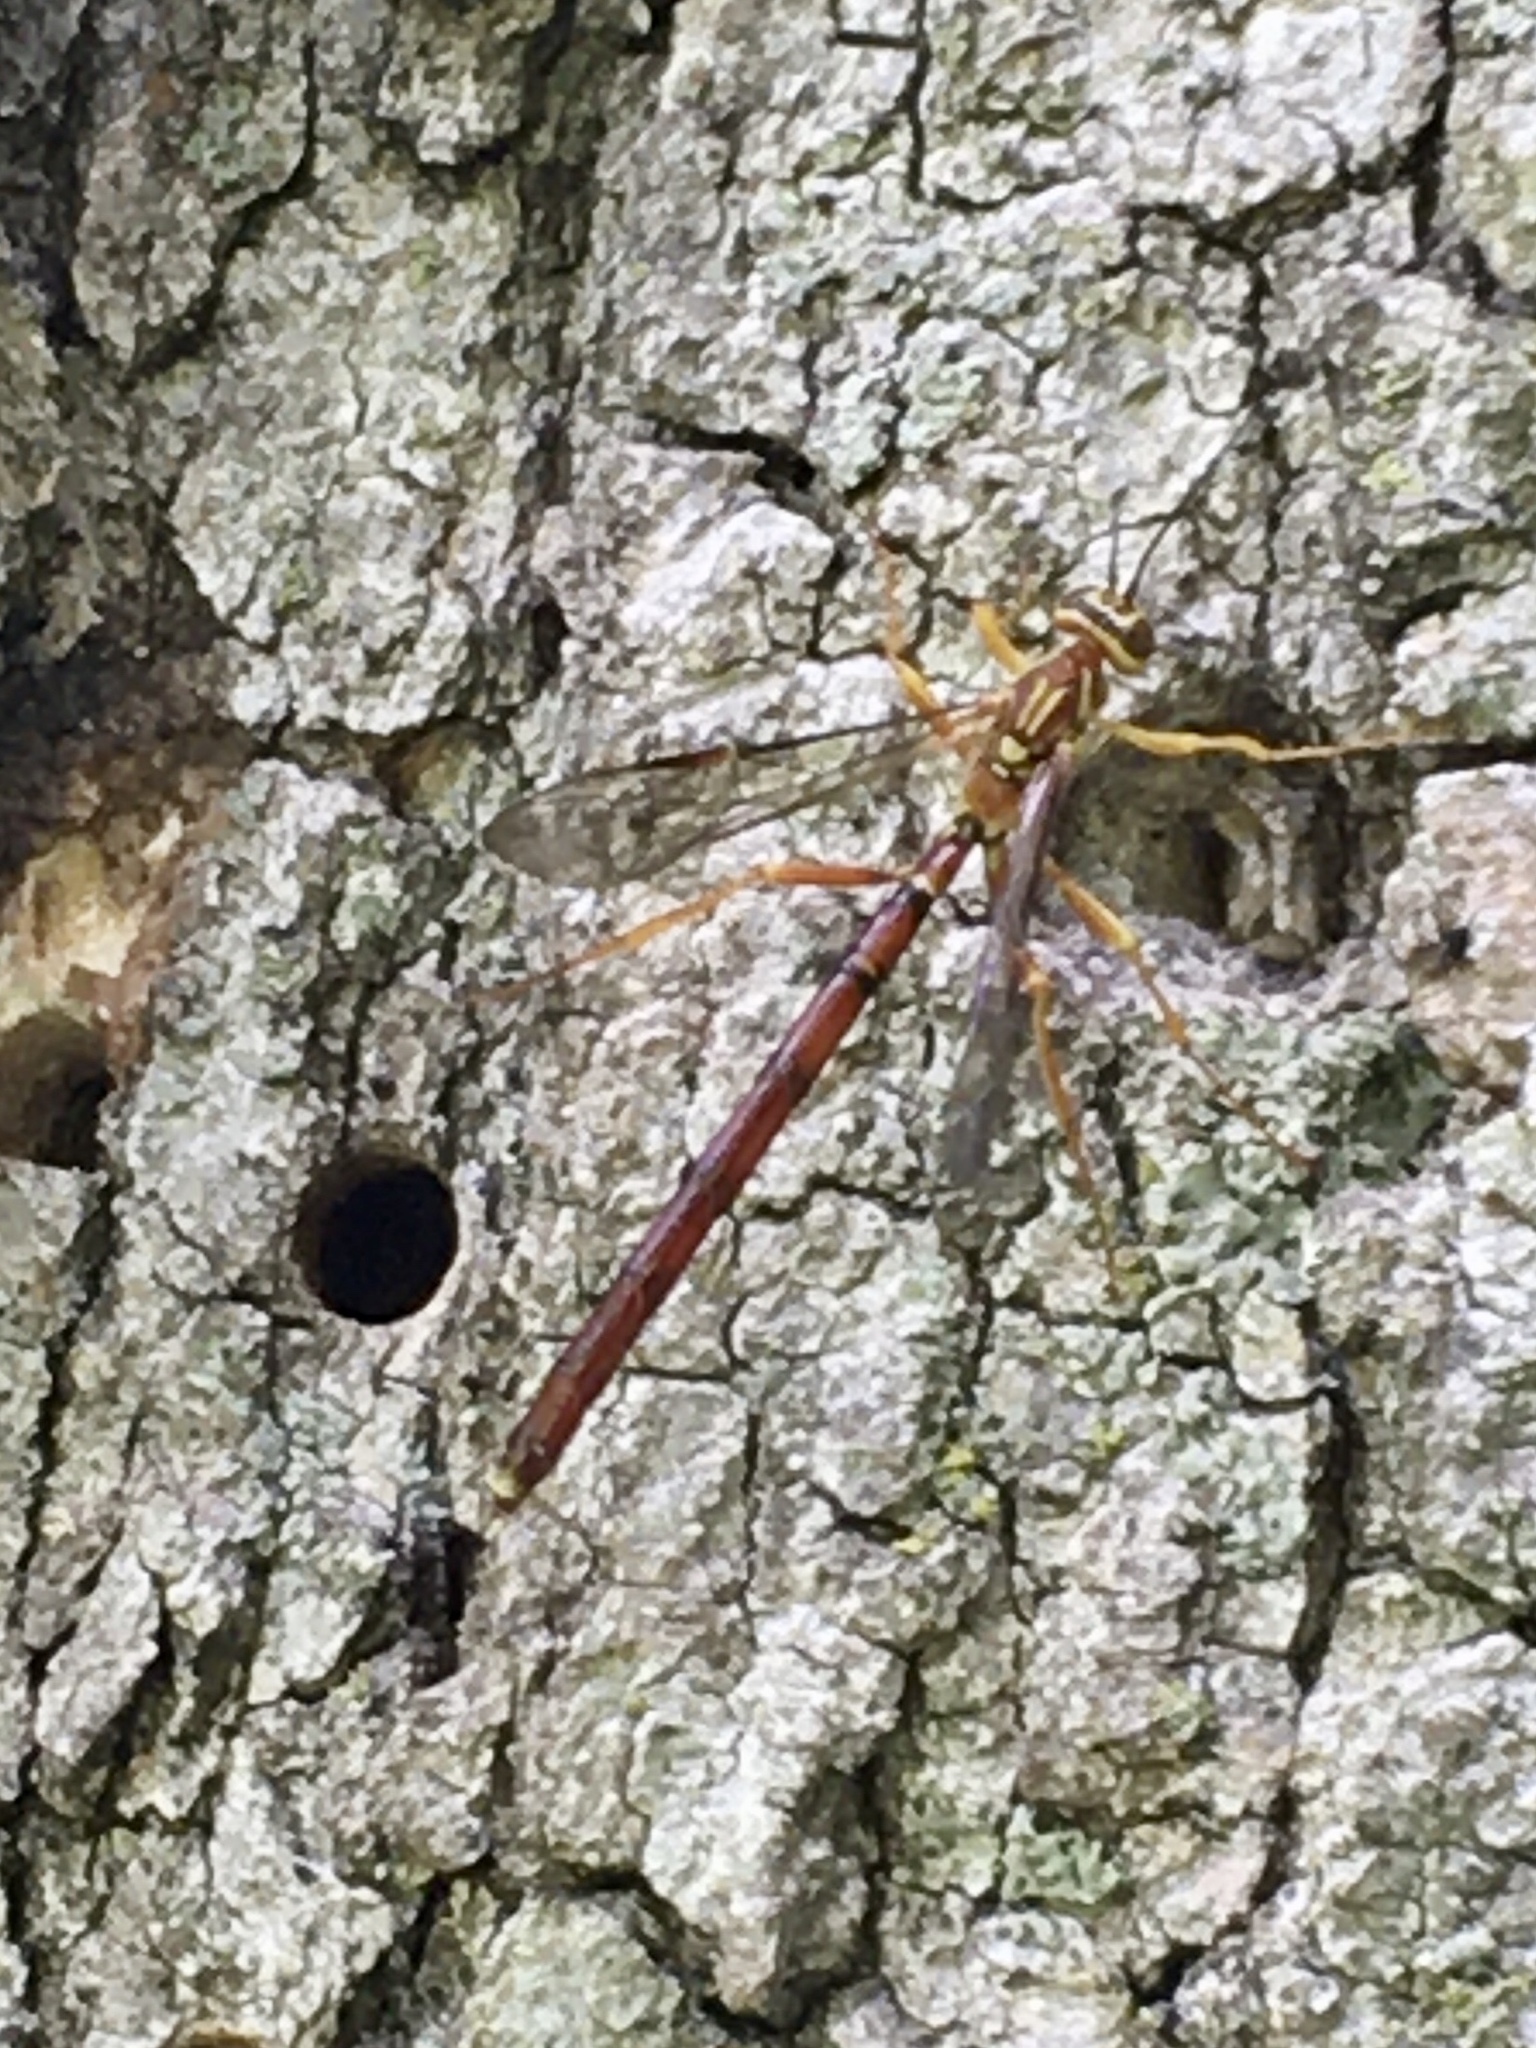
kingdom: Animalia
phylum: Arthropoda
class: Insecta
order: Hymenoptera
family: Ichneumonidae
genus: Megarhyssa
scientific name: Megarhyssa greenei
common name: Greene's giant ichneumonid wasp
